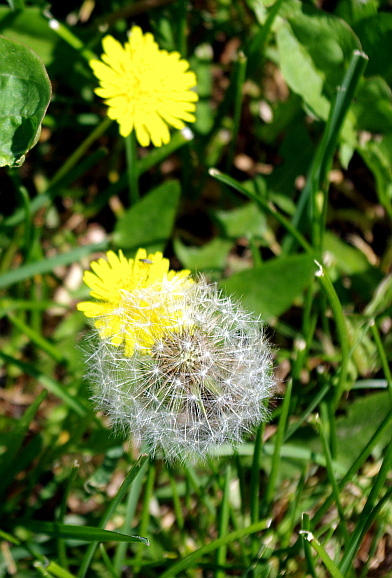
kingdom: Plantae
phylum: Tracheophyta
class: Magnoliopsida
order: Asterales
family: Asteraceae
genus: Taraxacum
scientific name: Taraxacum officinale
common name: Common dandelion
